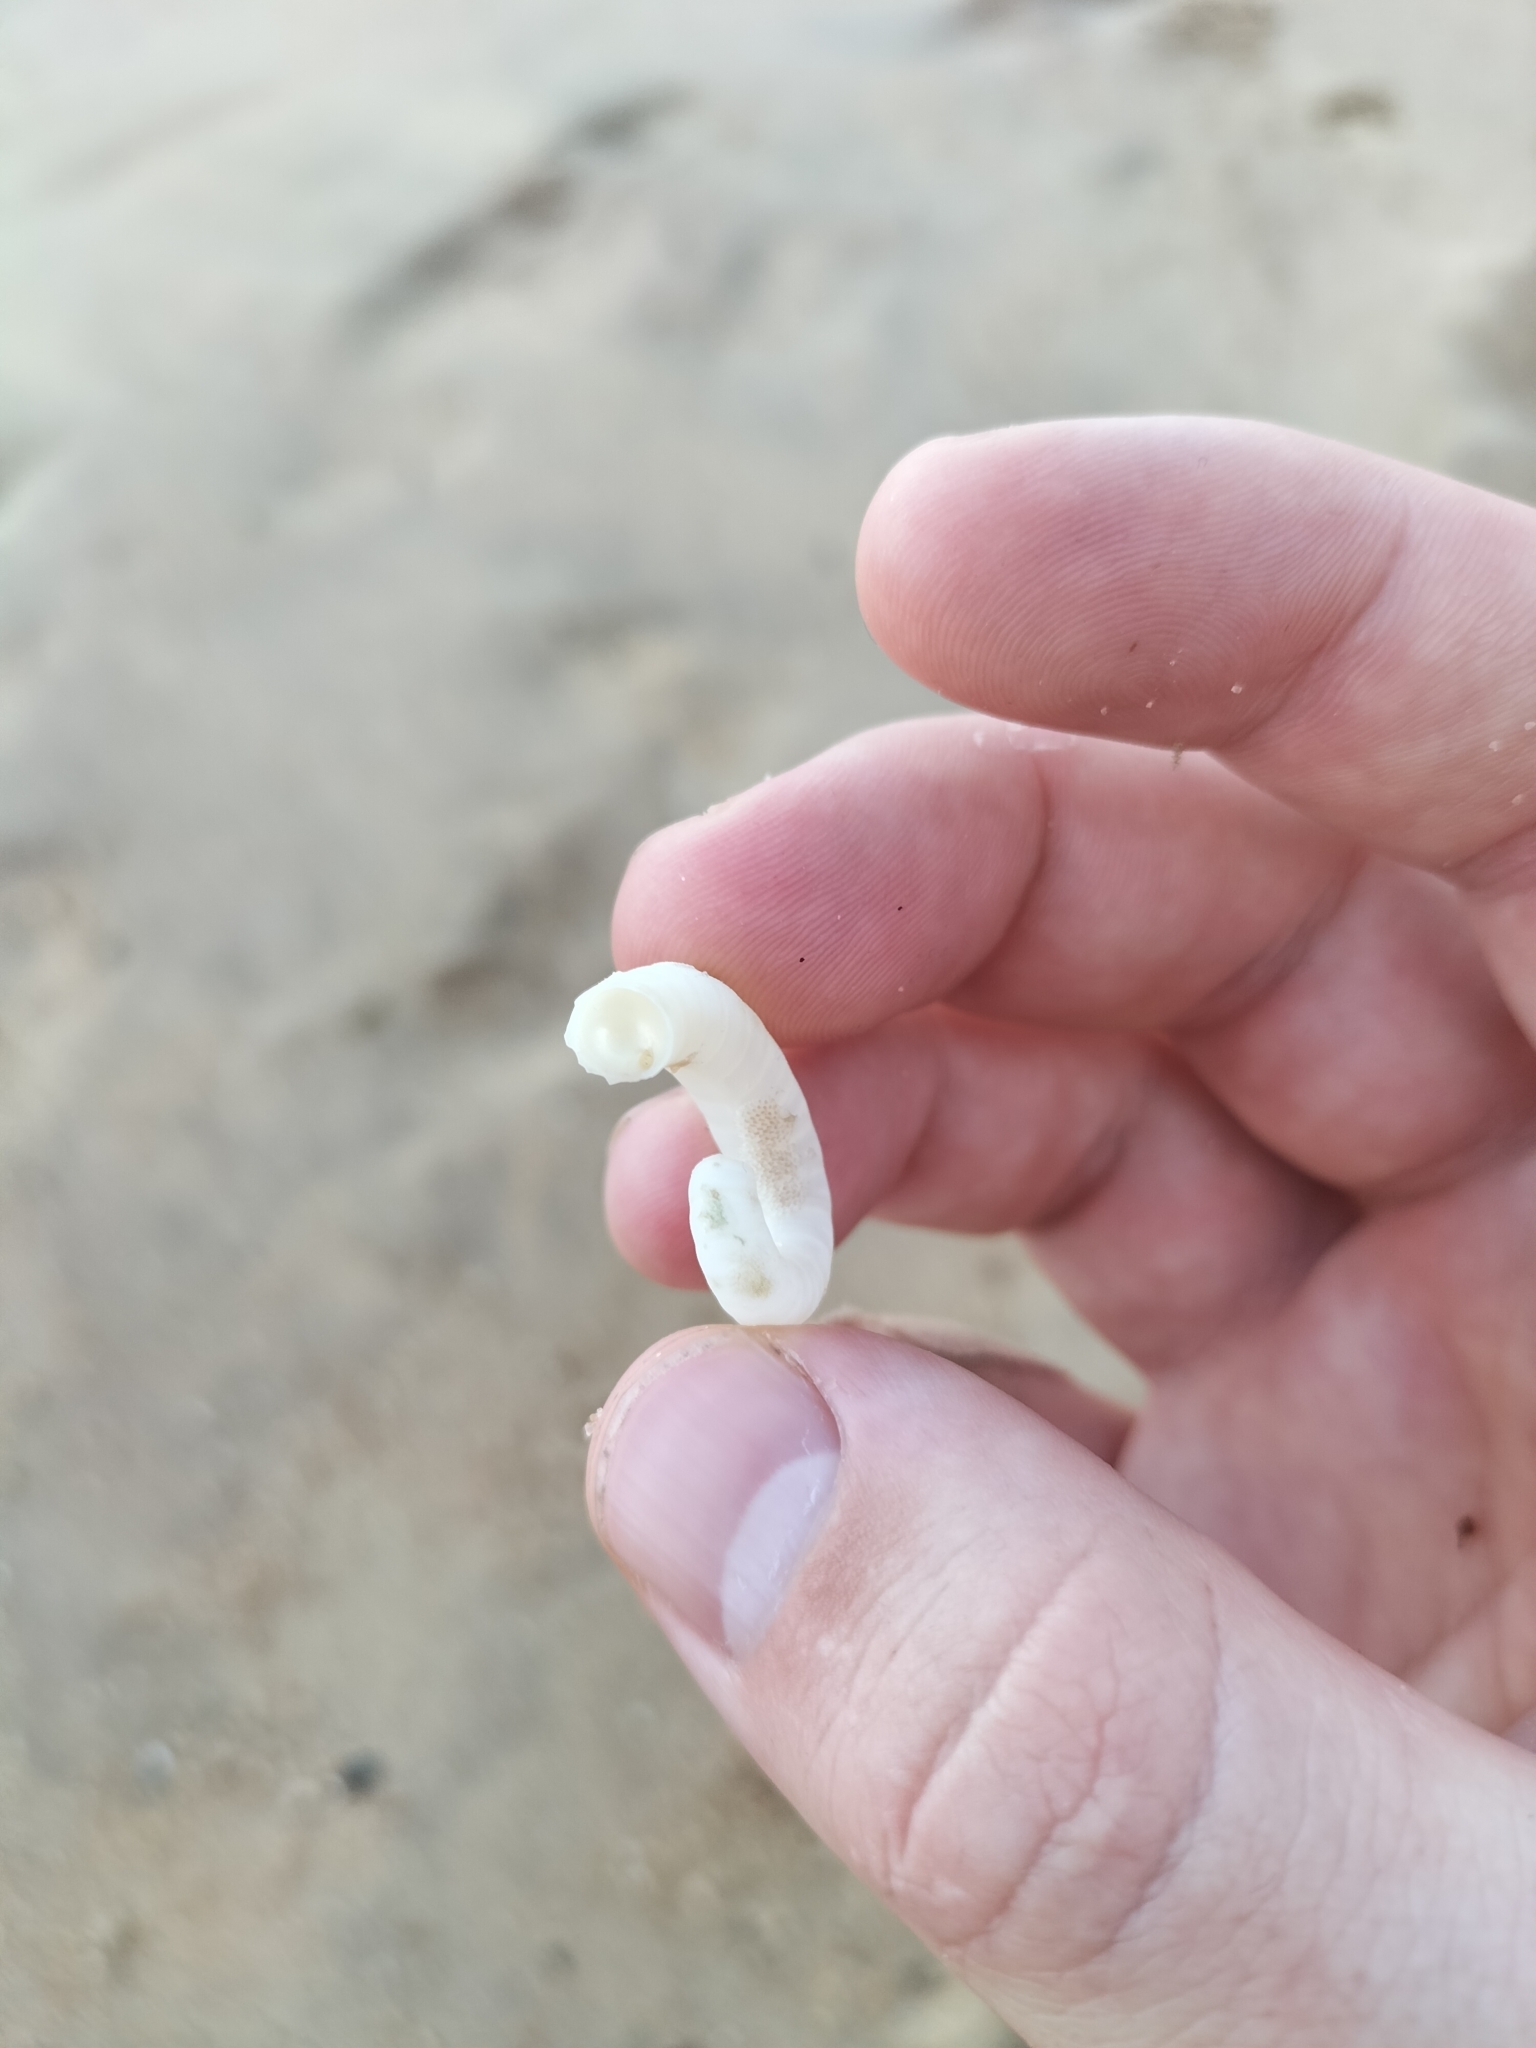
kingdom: Animalia
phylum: Mollusca
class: Cephalopoda
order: Spirulida
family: Spirulidae
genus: Spirula
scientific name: Spirula spirula
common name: Ram's horn squid
